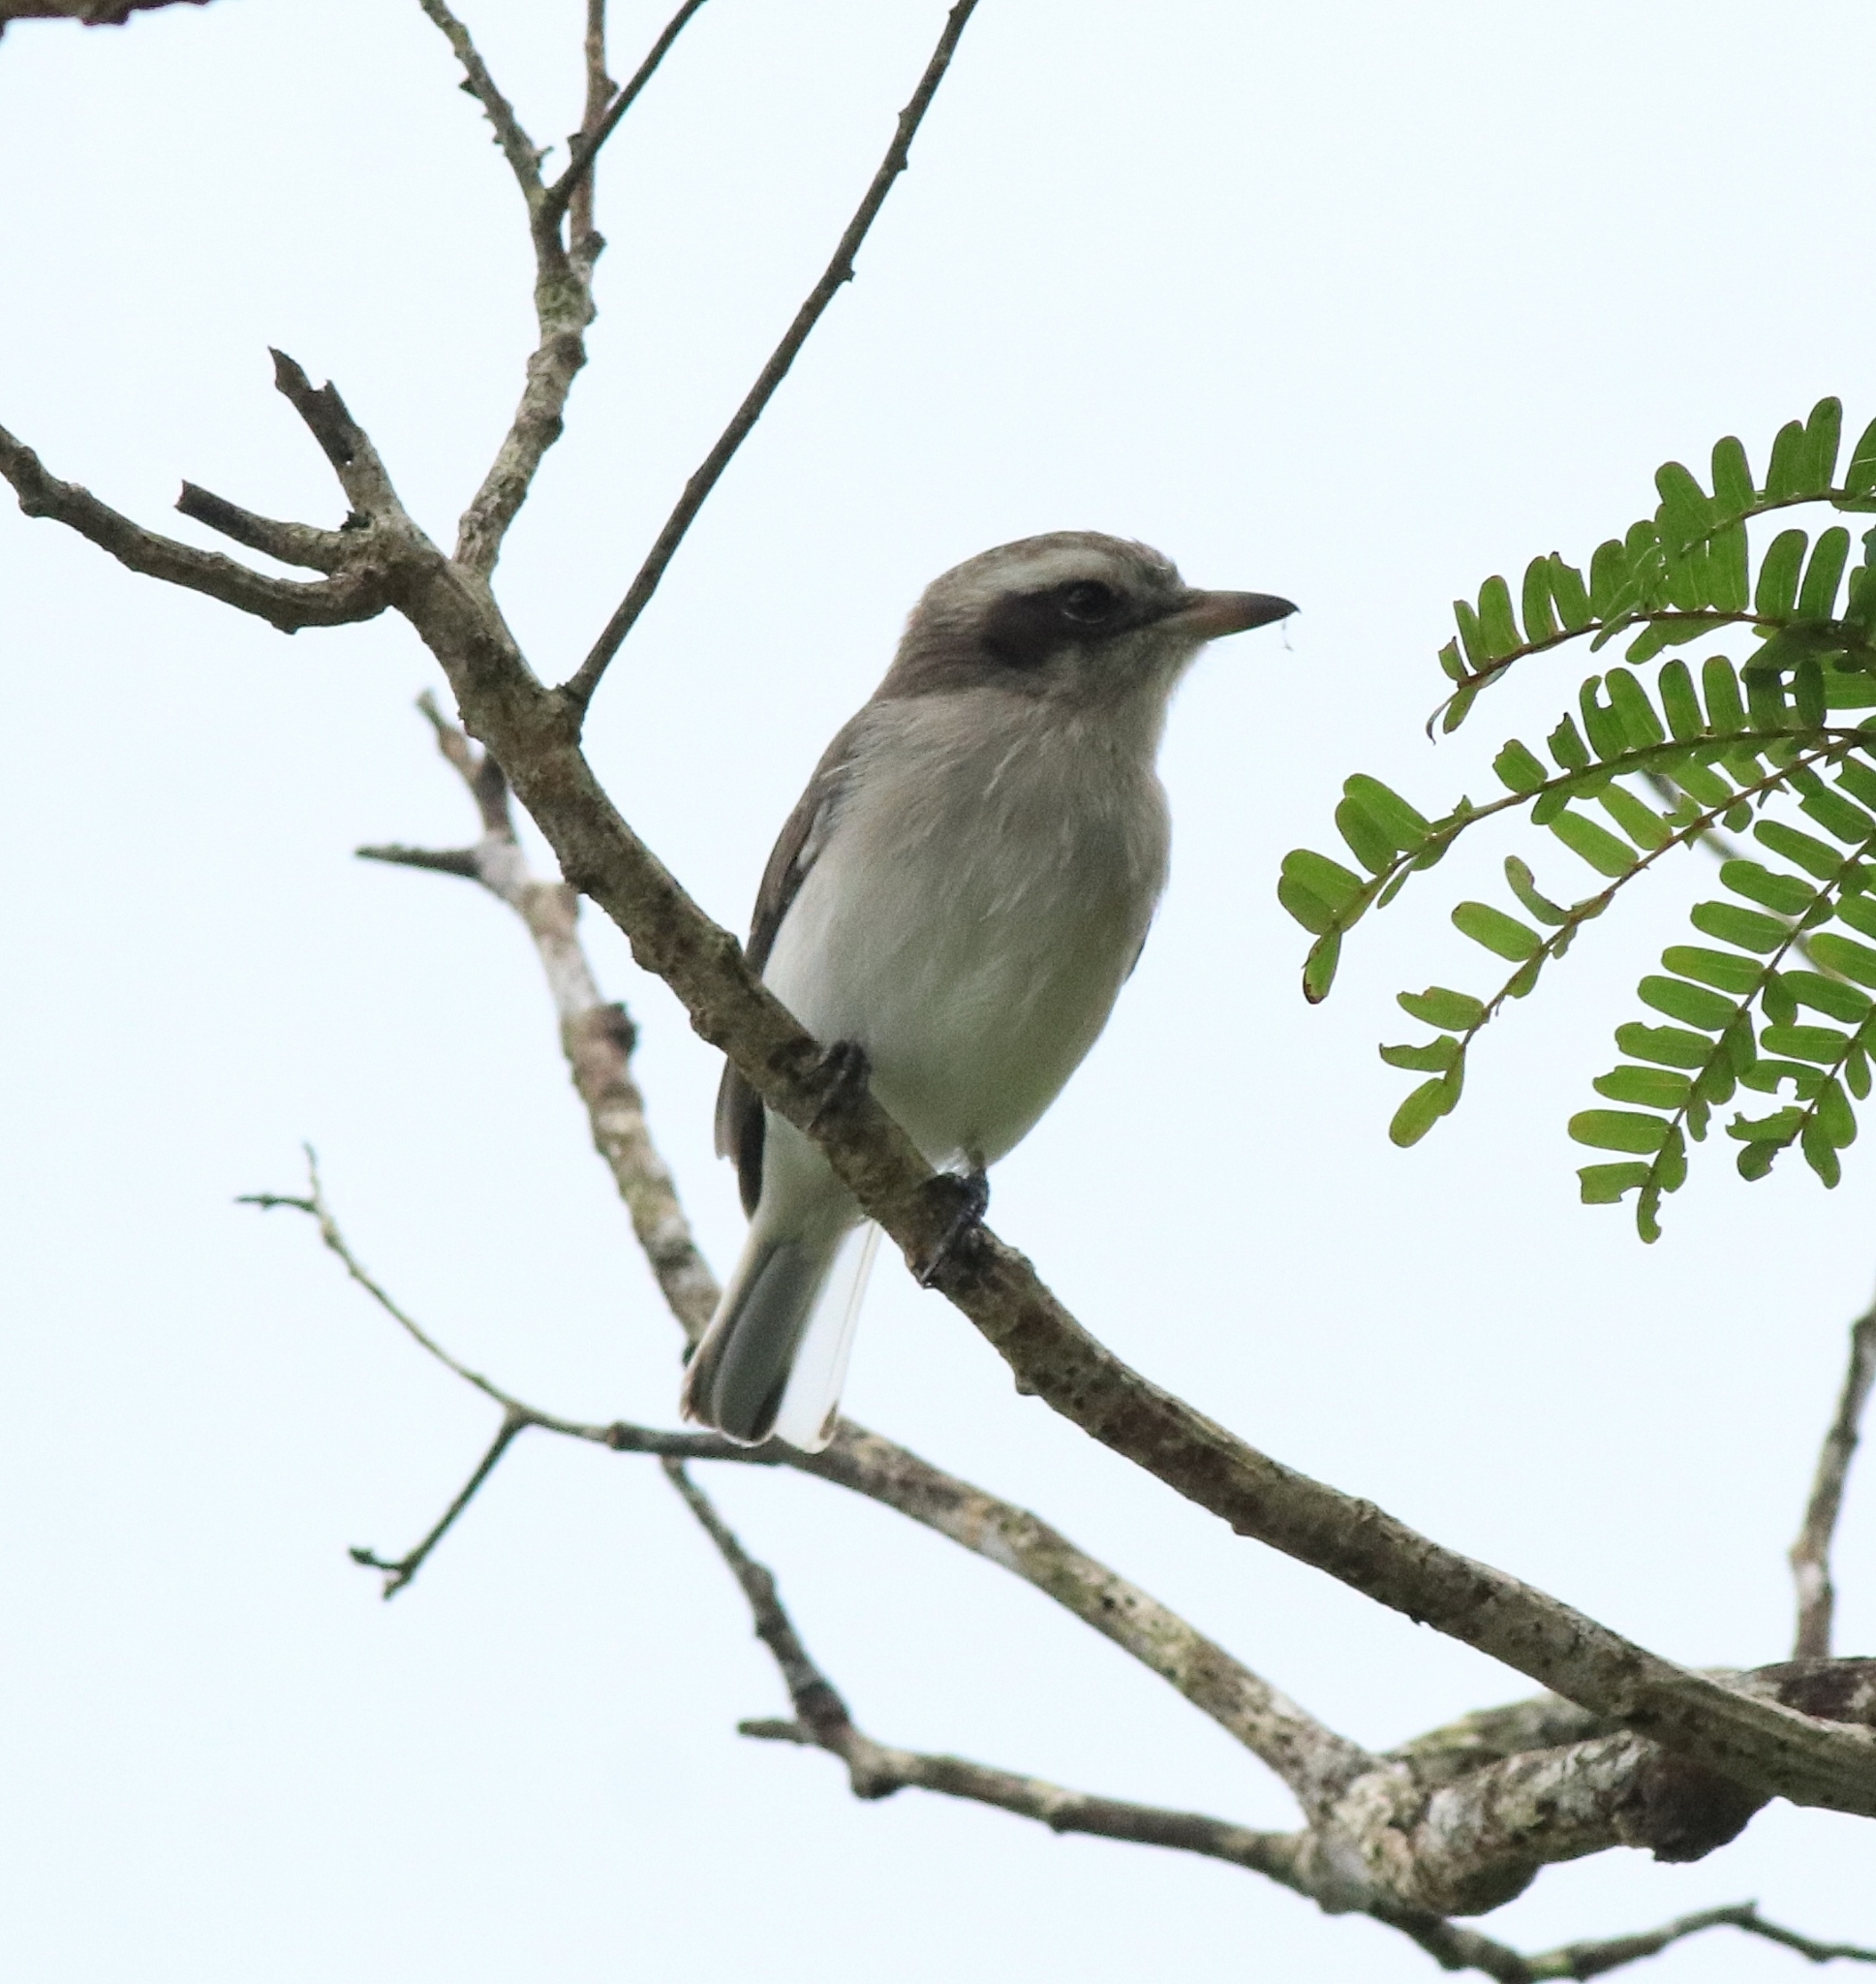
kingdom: Animalia
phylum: Chordata
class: Aves
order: Passeriformes
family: Tephrodornithidae
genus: Tephrodornis
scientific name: Tephrodornis pondicerianus
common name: Common woodshrike
